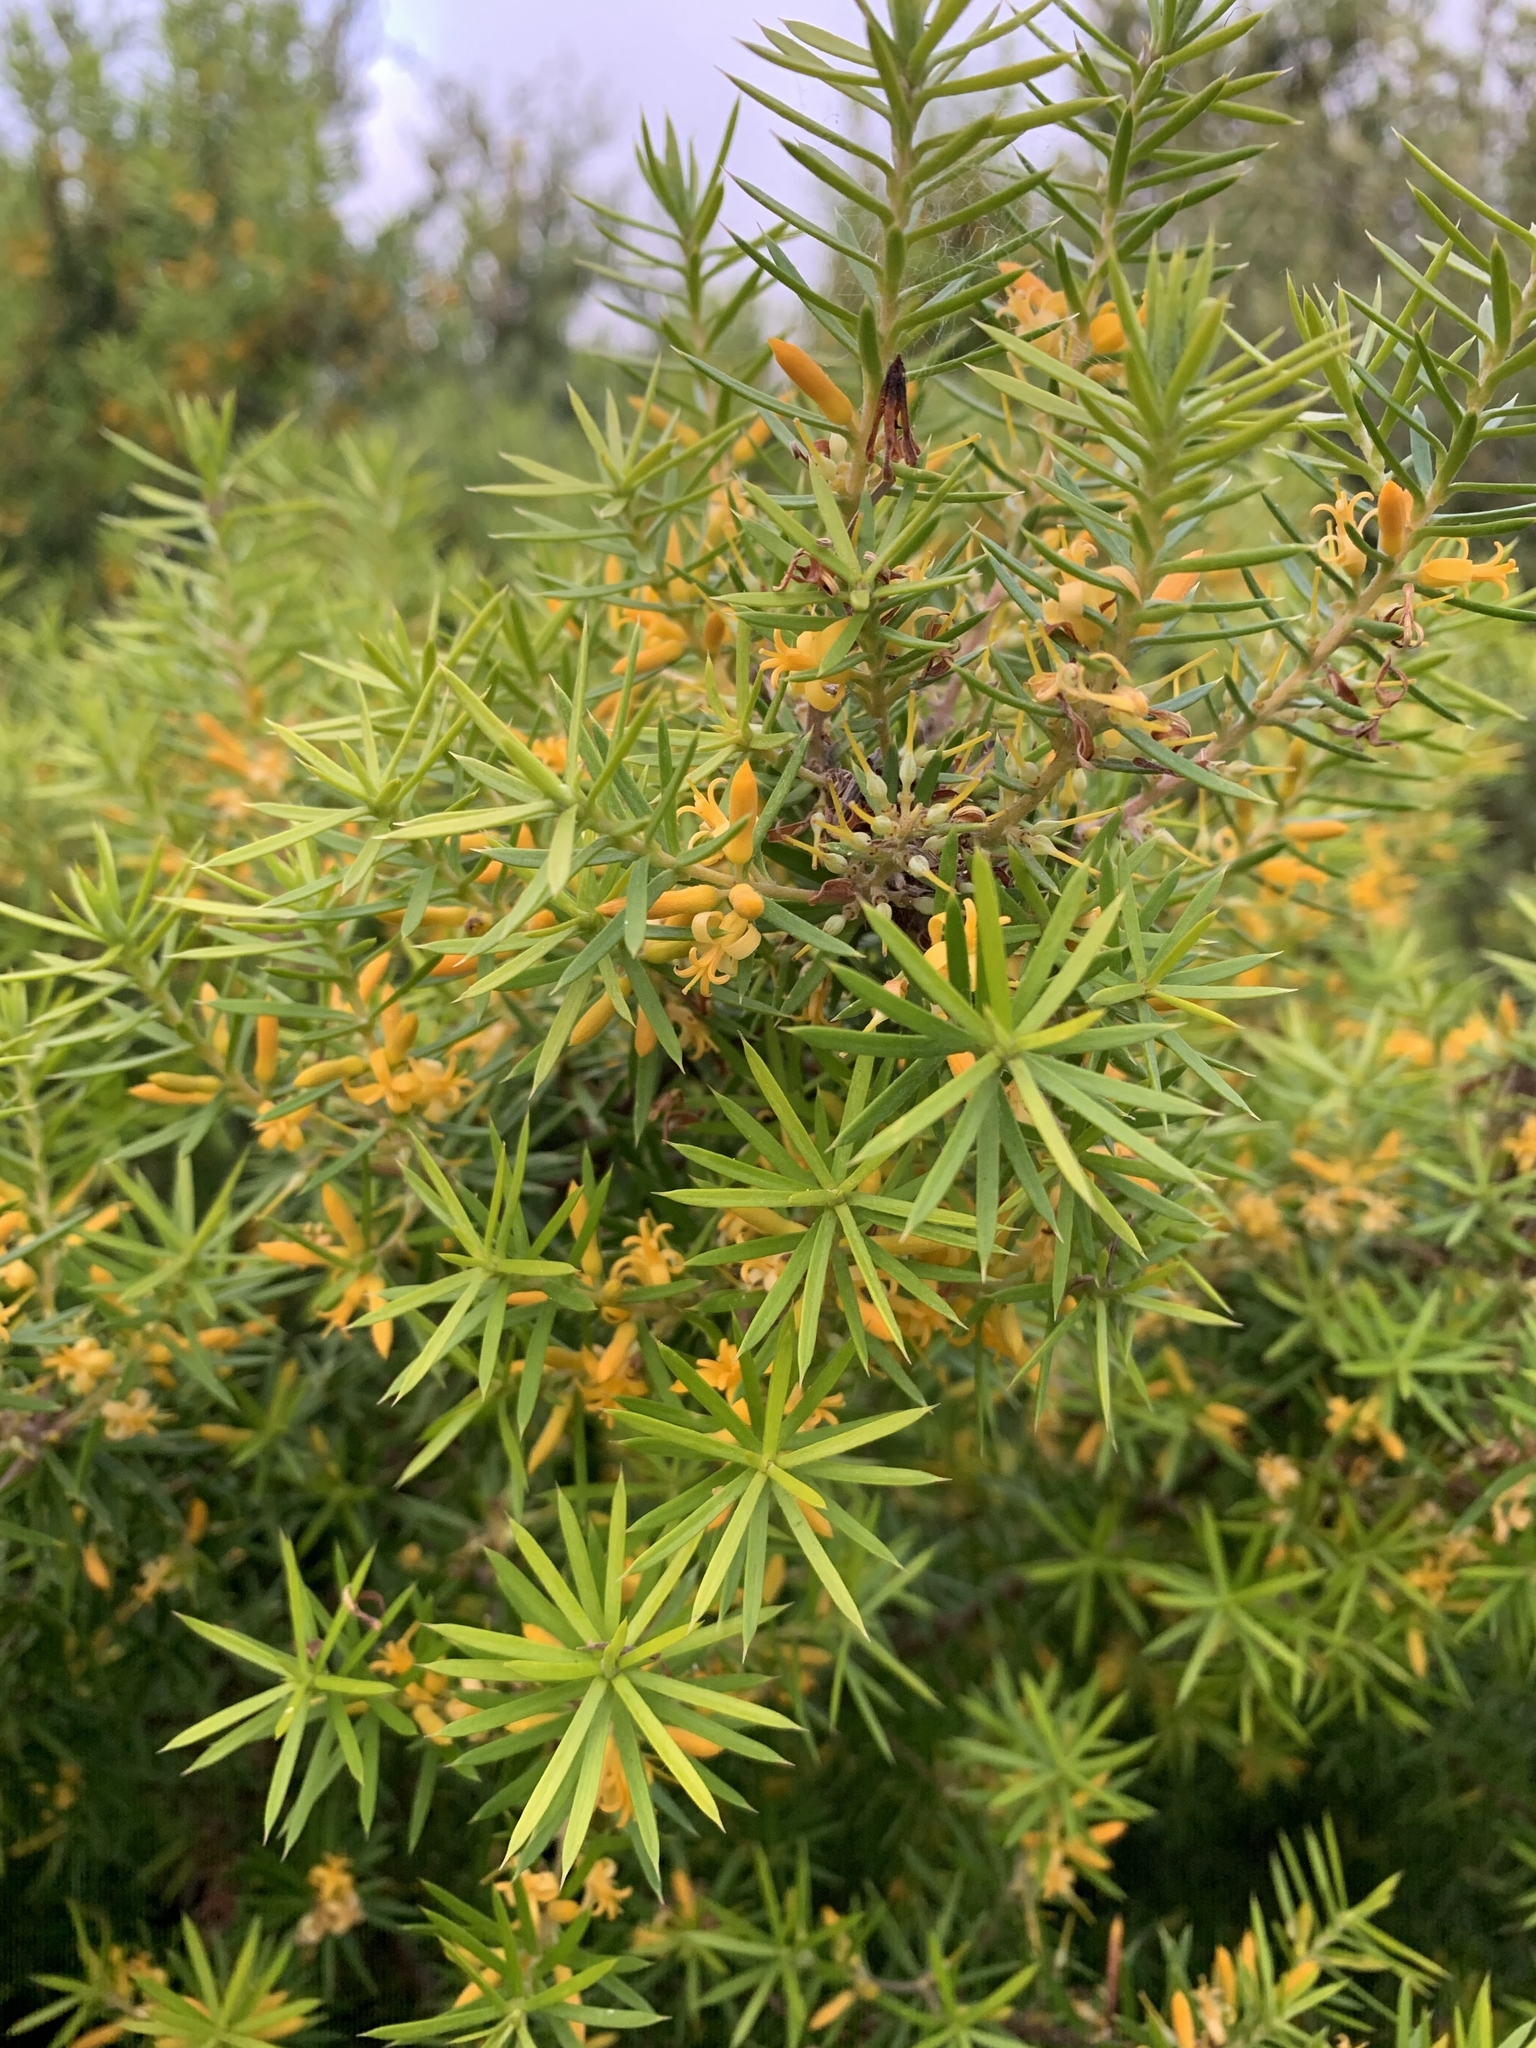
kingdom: Plantae
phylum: Tracheophyta
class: Magnoliopsida
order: Proteales
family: Proteaceae
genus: Persoonia
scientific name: Persoonia juniperina
